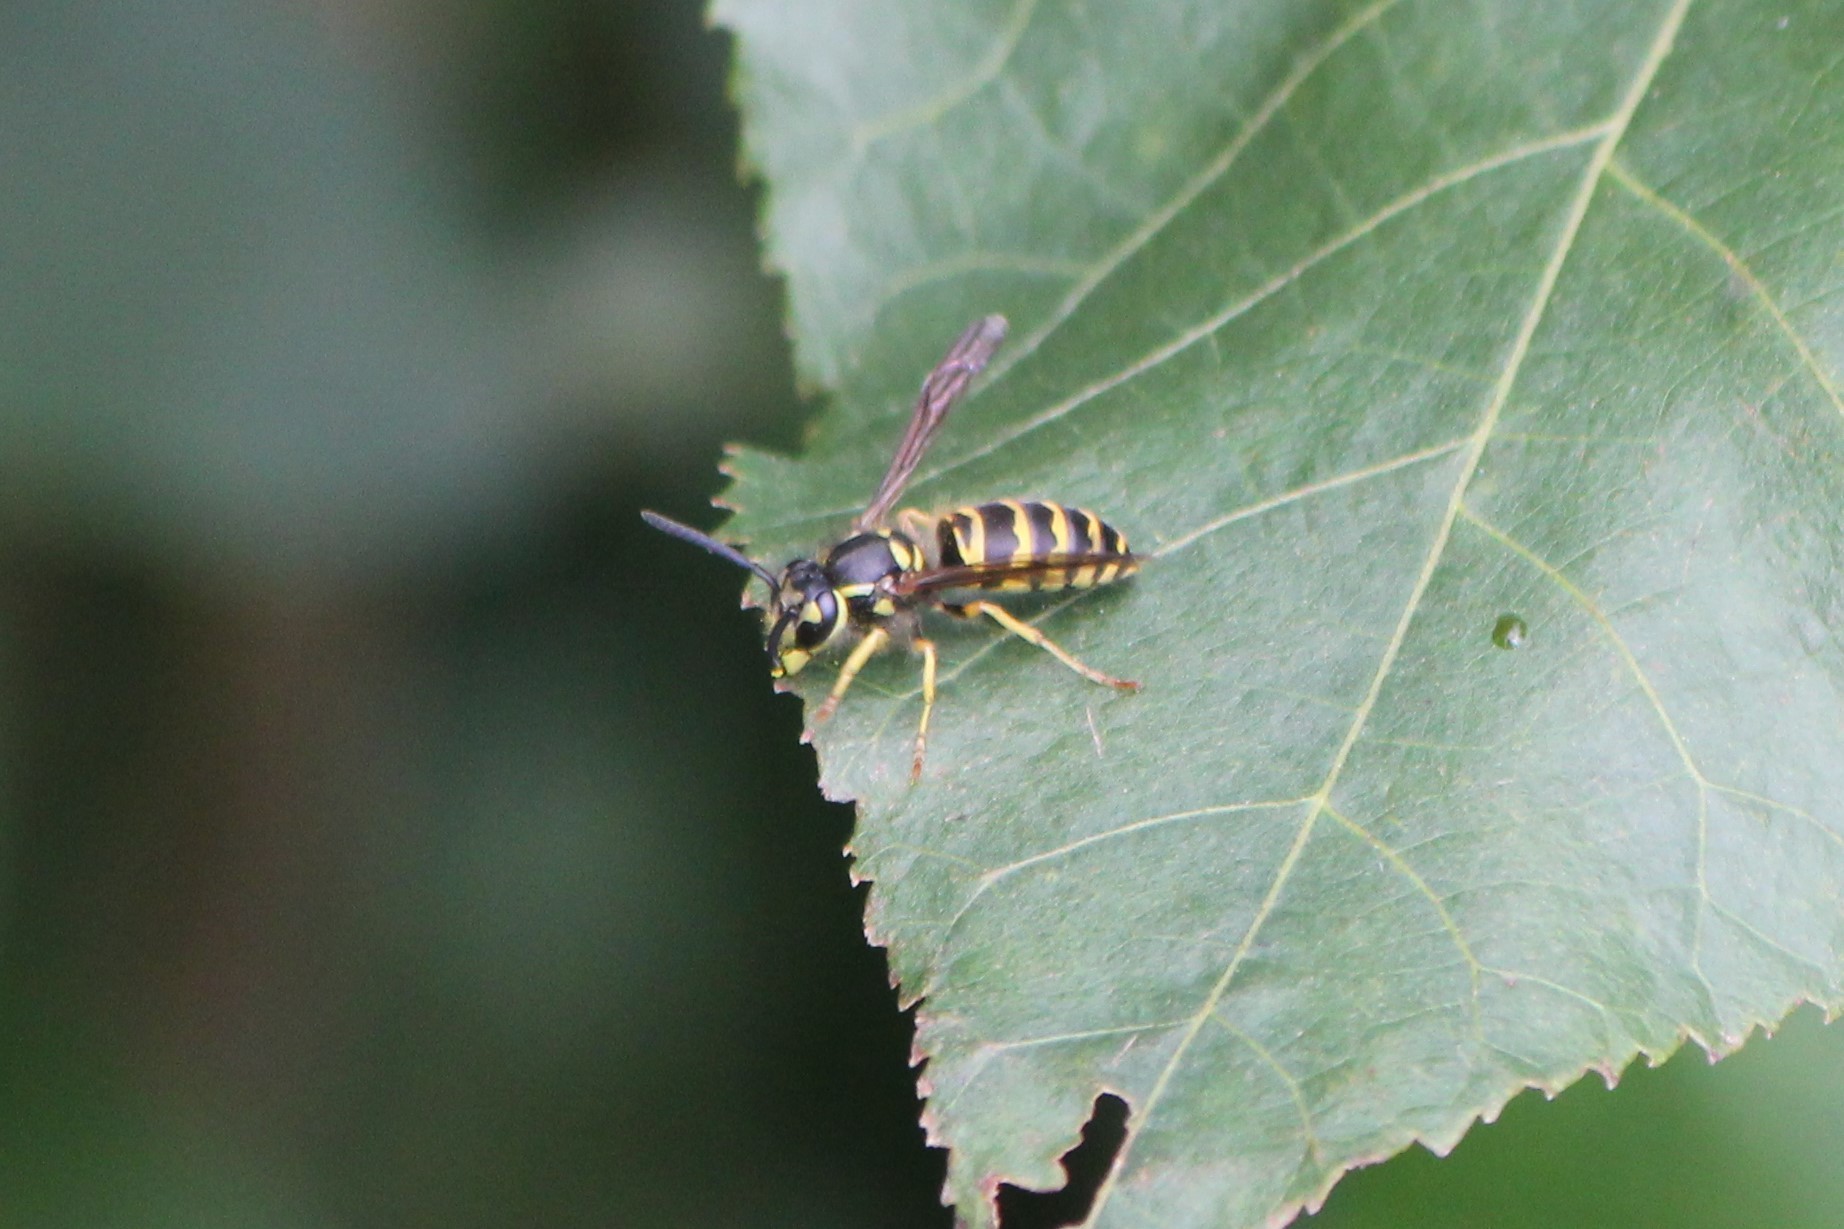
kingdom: Animalia
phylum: Arthropoda
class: Insecta
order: Hymenoptera
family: Vespidae
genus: Vespula
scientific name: Vespula maculifrons
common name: Eastern yellowjacket
